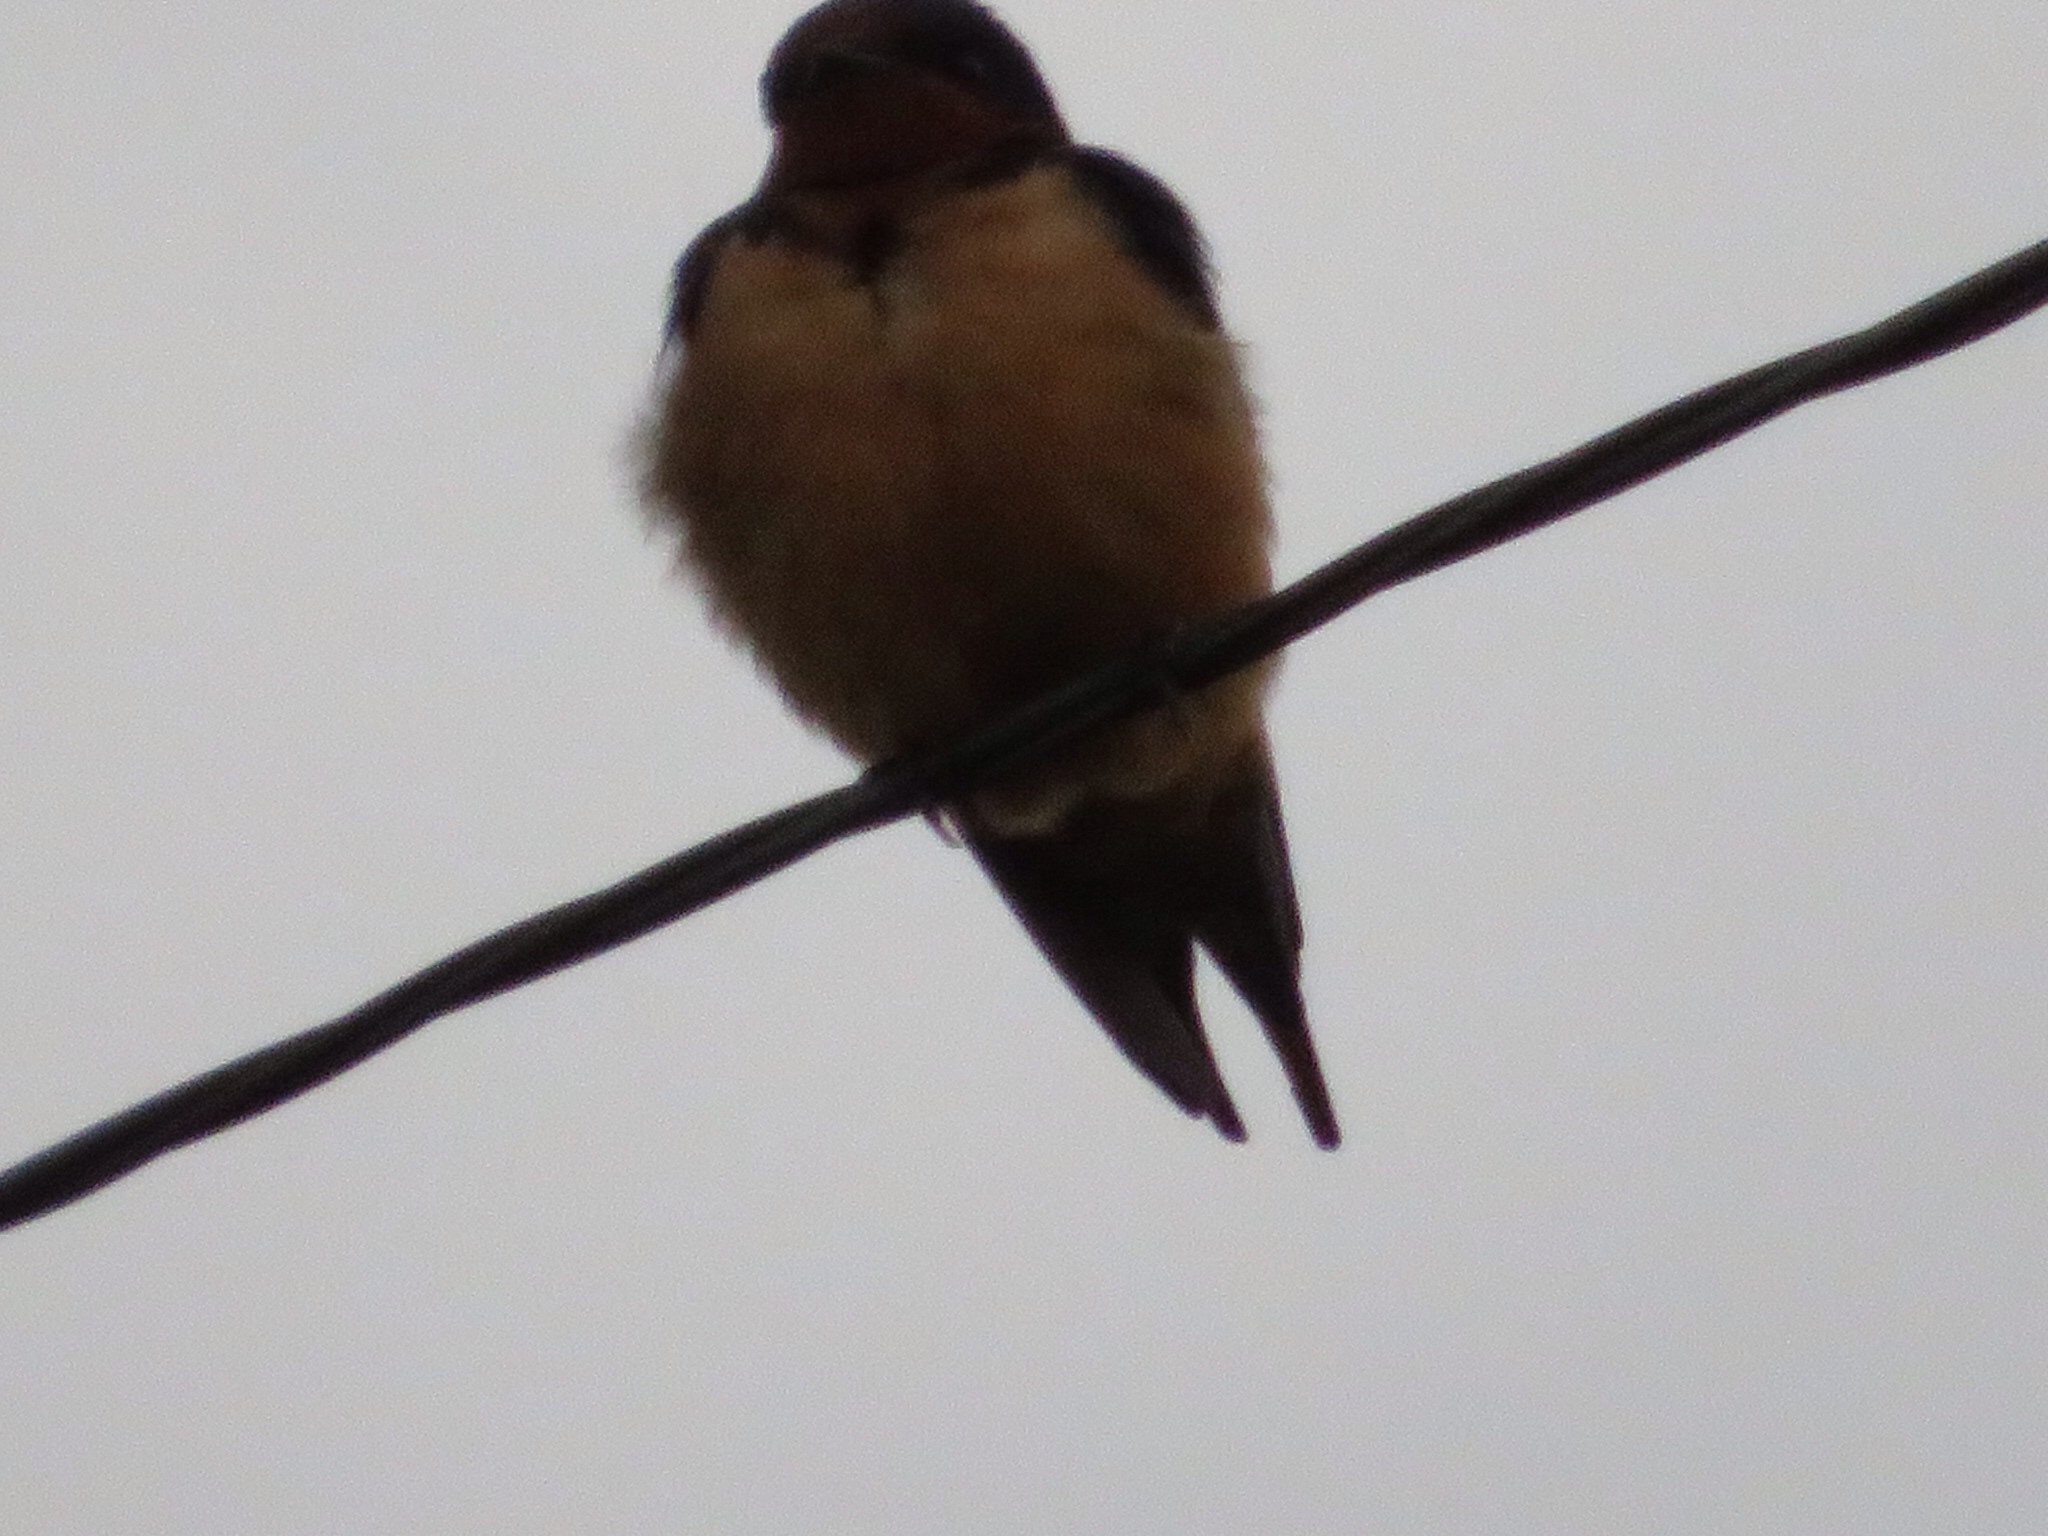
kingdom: Animalia
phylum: Chordata
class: Aves
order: Passeriformes
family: Hirundinidae
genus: Hirundo
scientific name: Hirundo rustica
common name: Barn swallow
